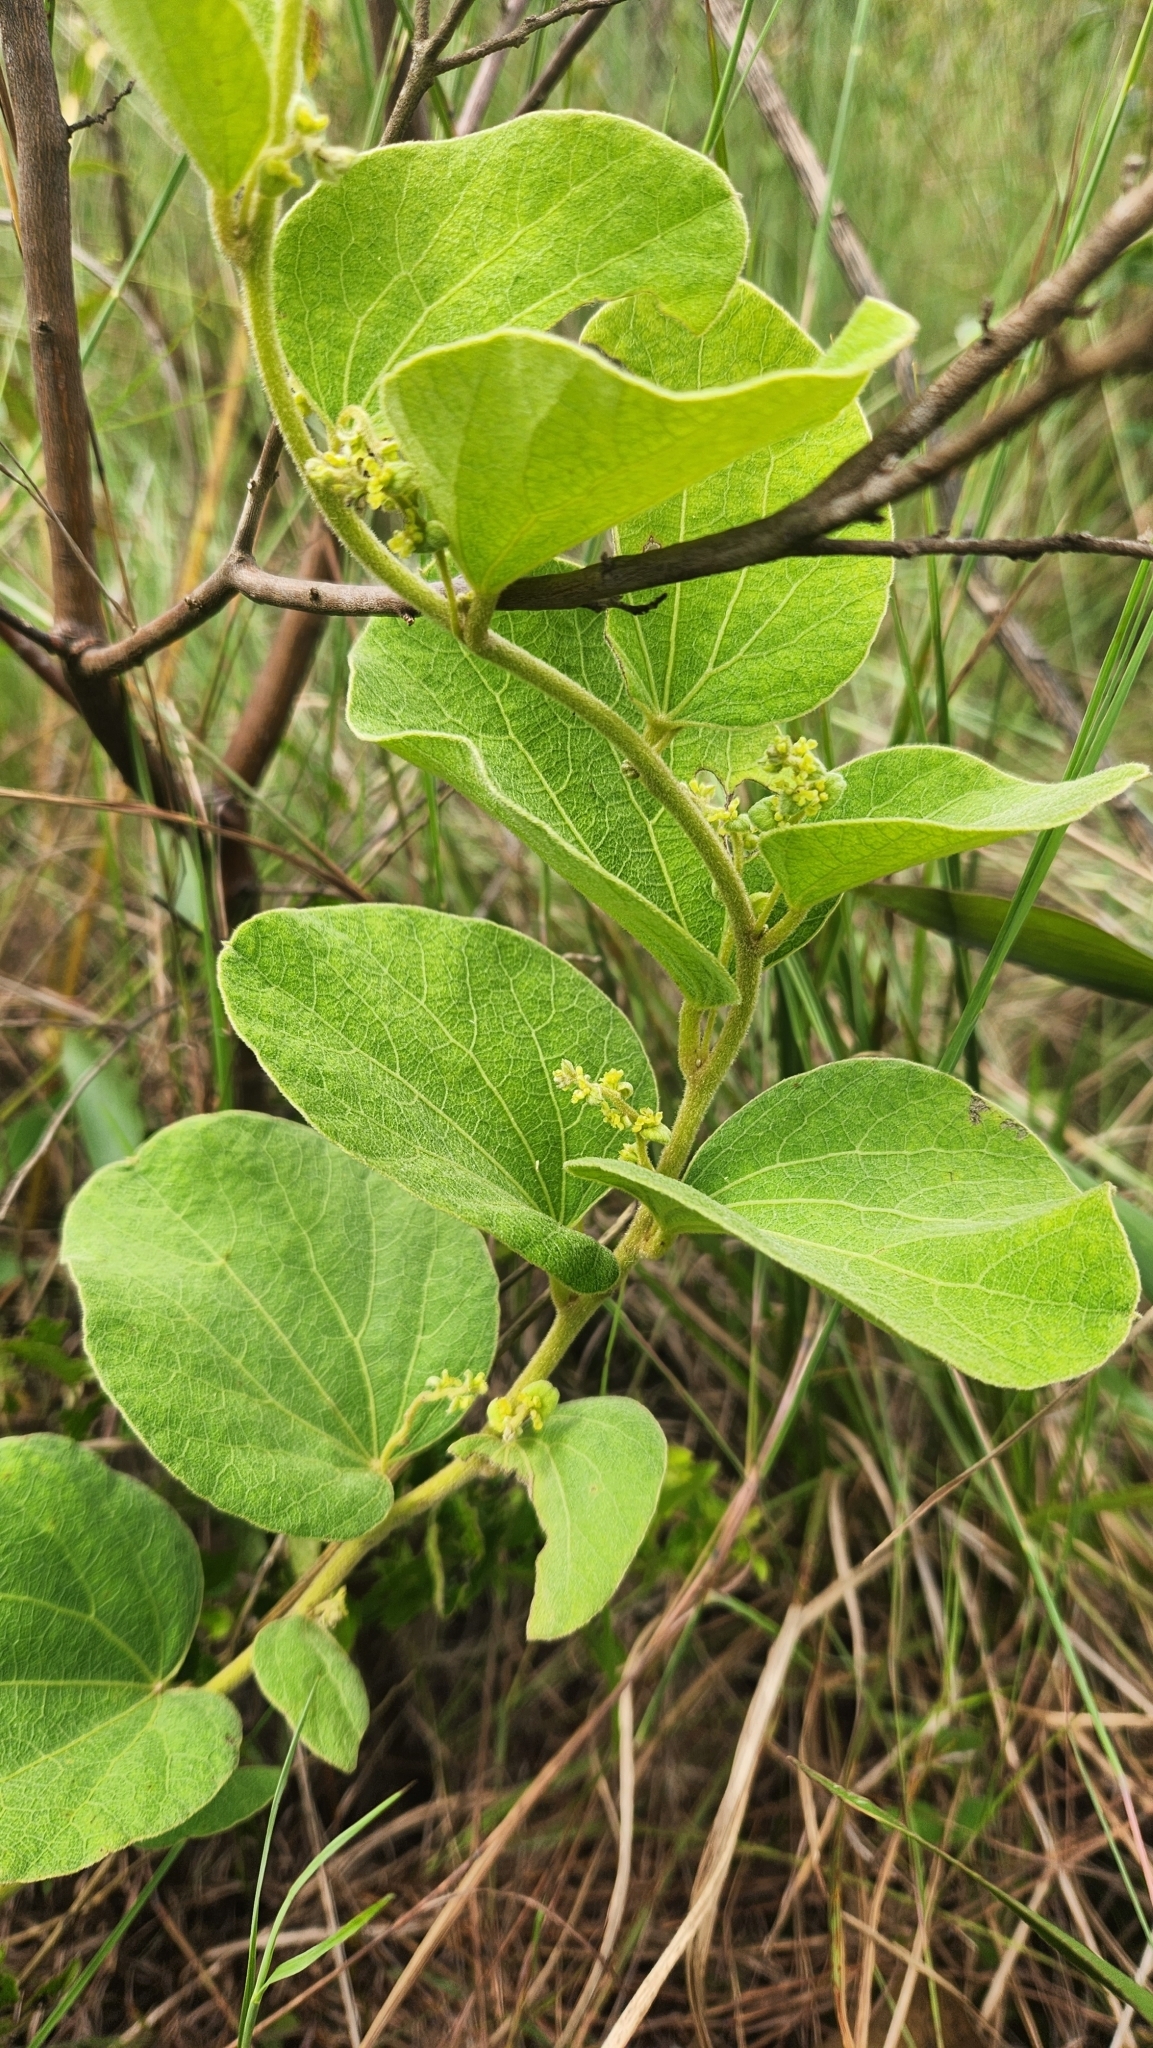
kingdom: Plantae
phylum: Tracheophyta
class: Magnoliopsida
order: Ranunculales
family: Menispermaceae
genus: Cissampelos
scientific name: Cissampelos ovalifolia
